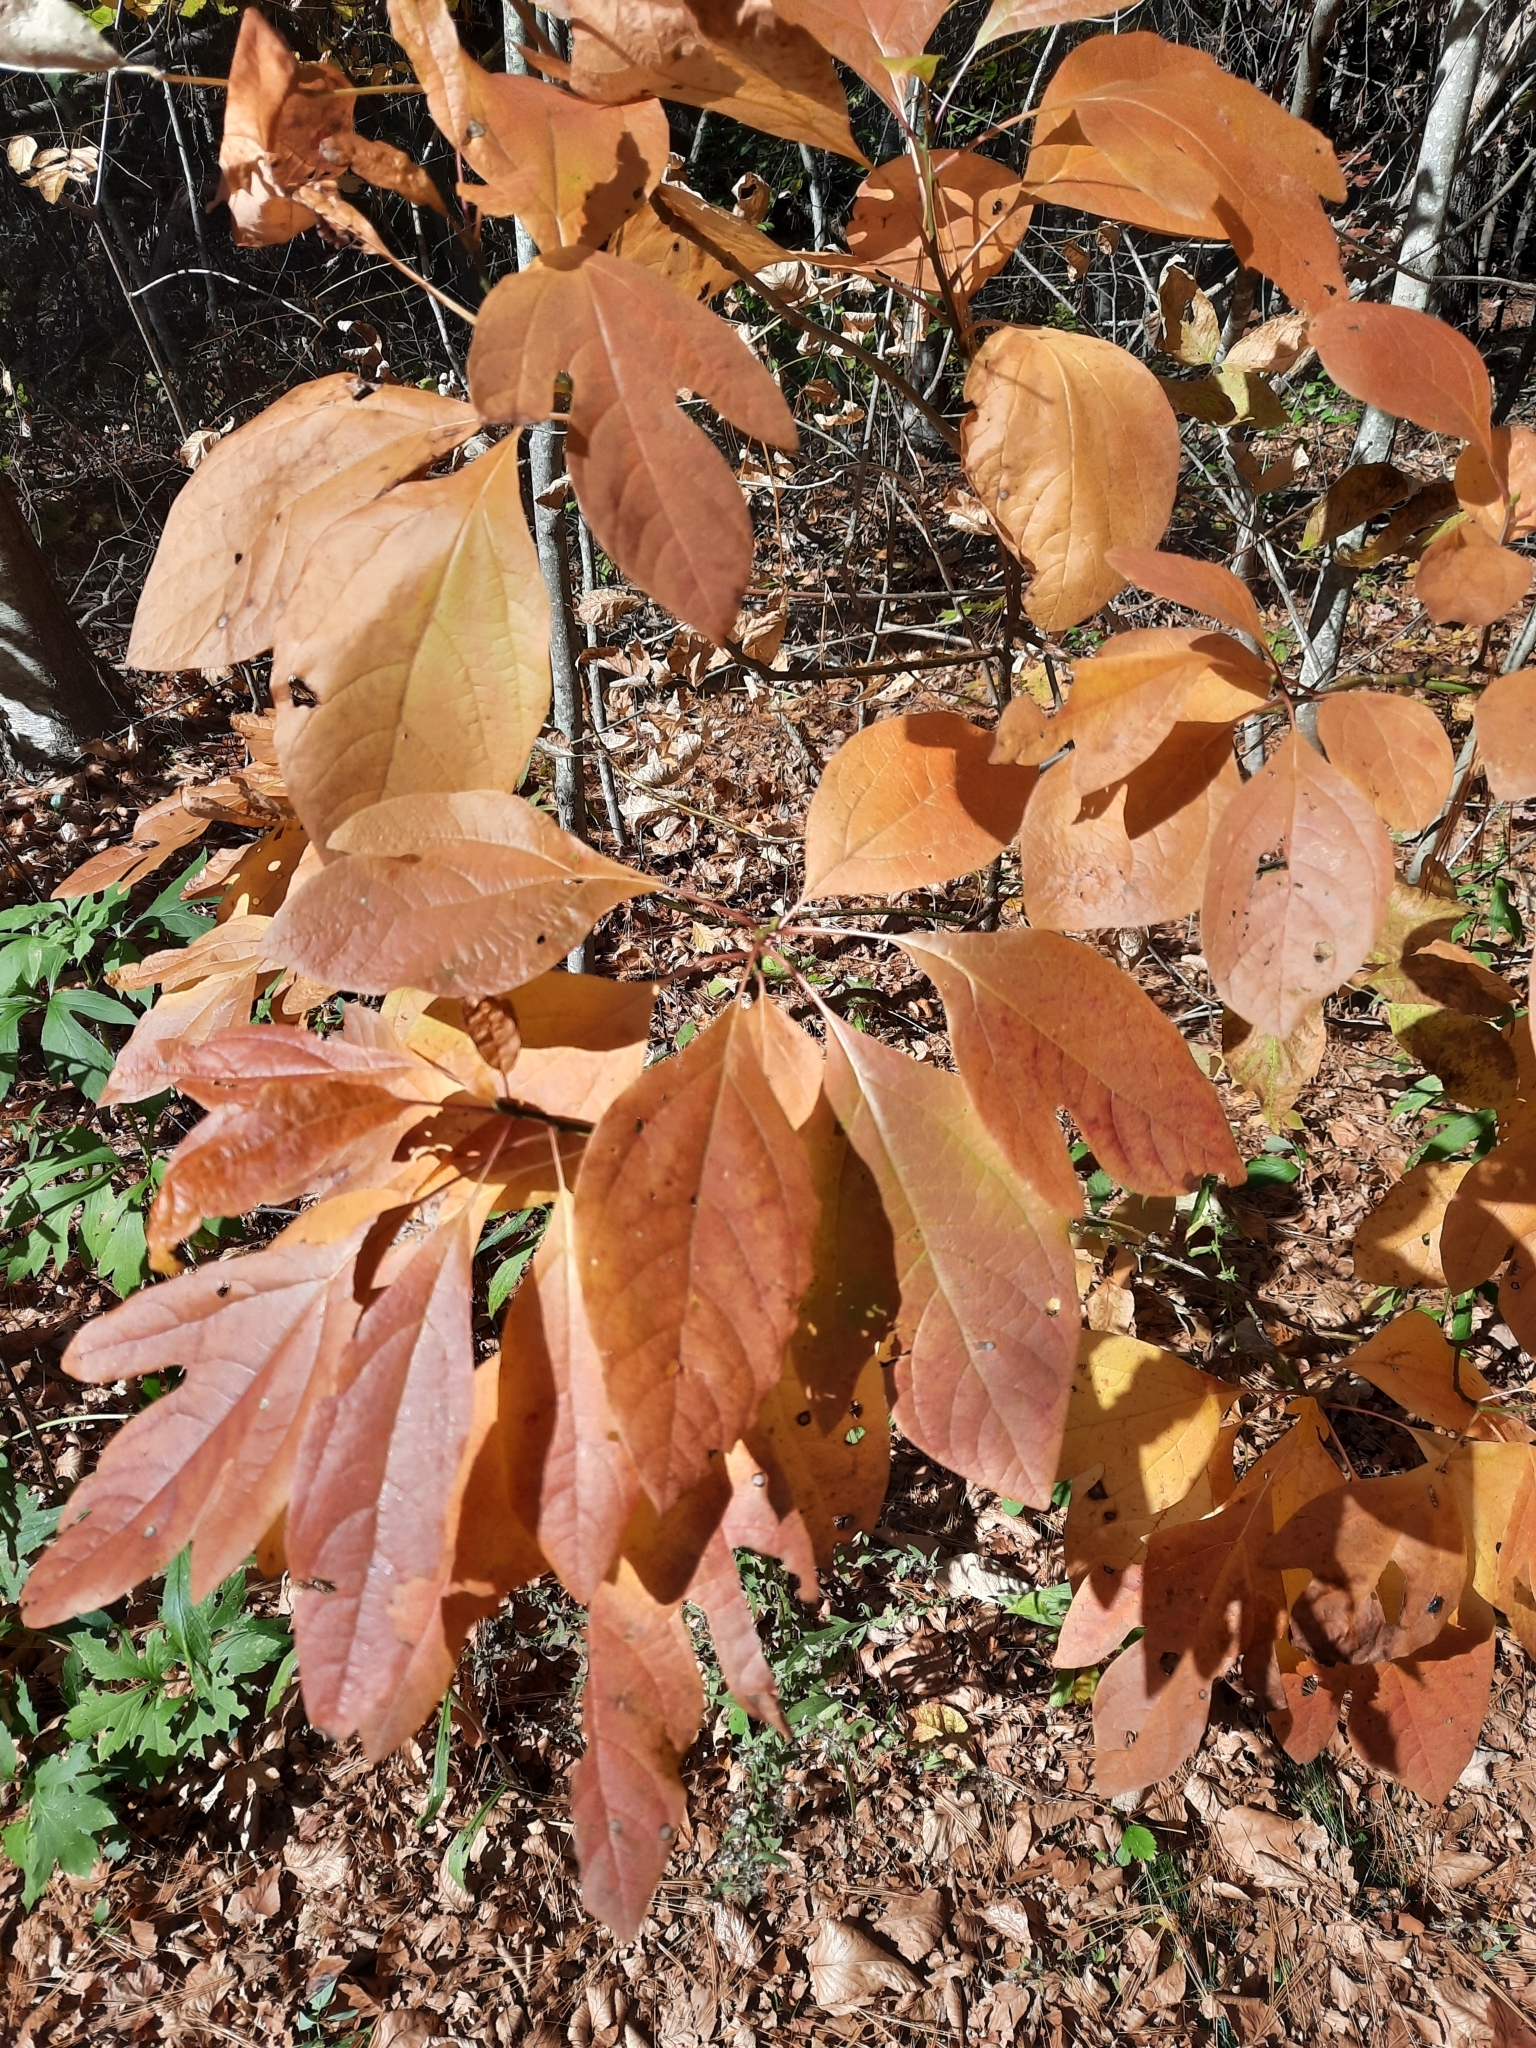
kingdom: Plantae
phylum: Tracheophyta
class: Magnoliopsida
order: Laurales
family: Lauraceae
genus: Sassafras
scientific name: Sassafras albidum
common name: Sassafras
